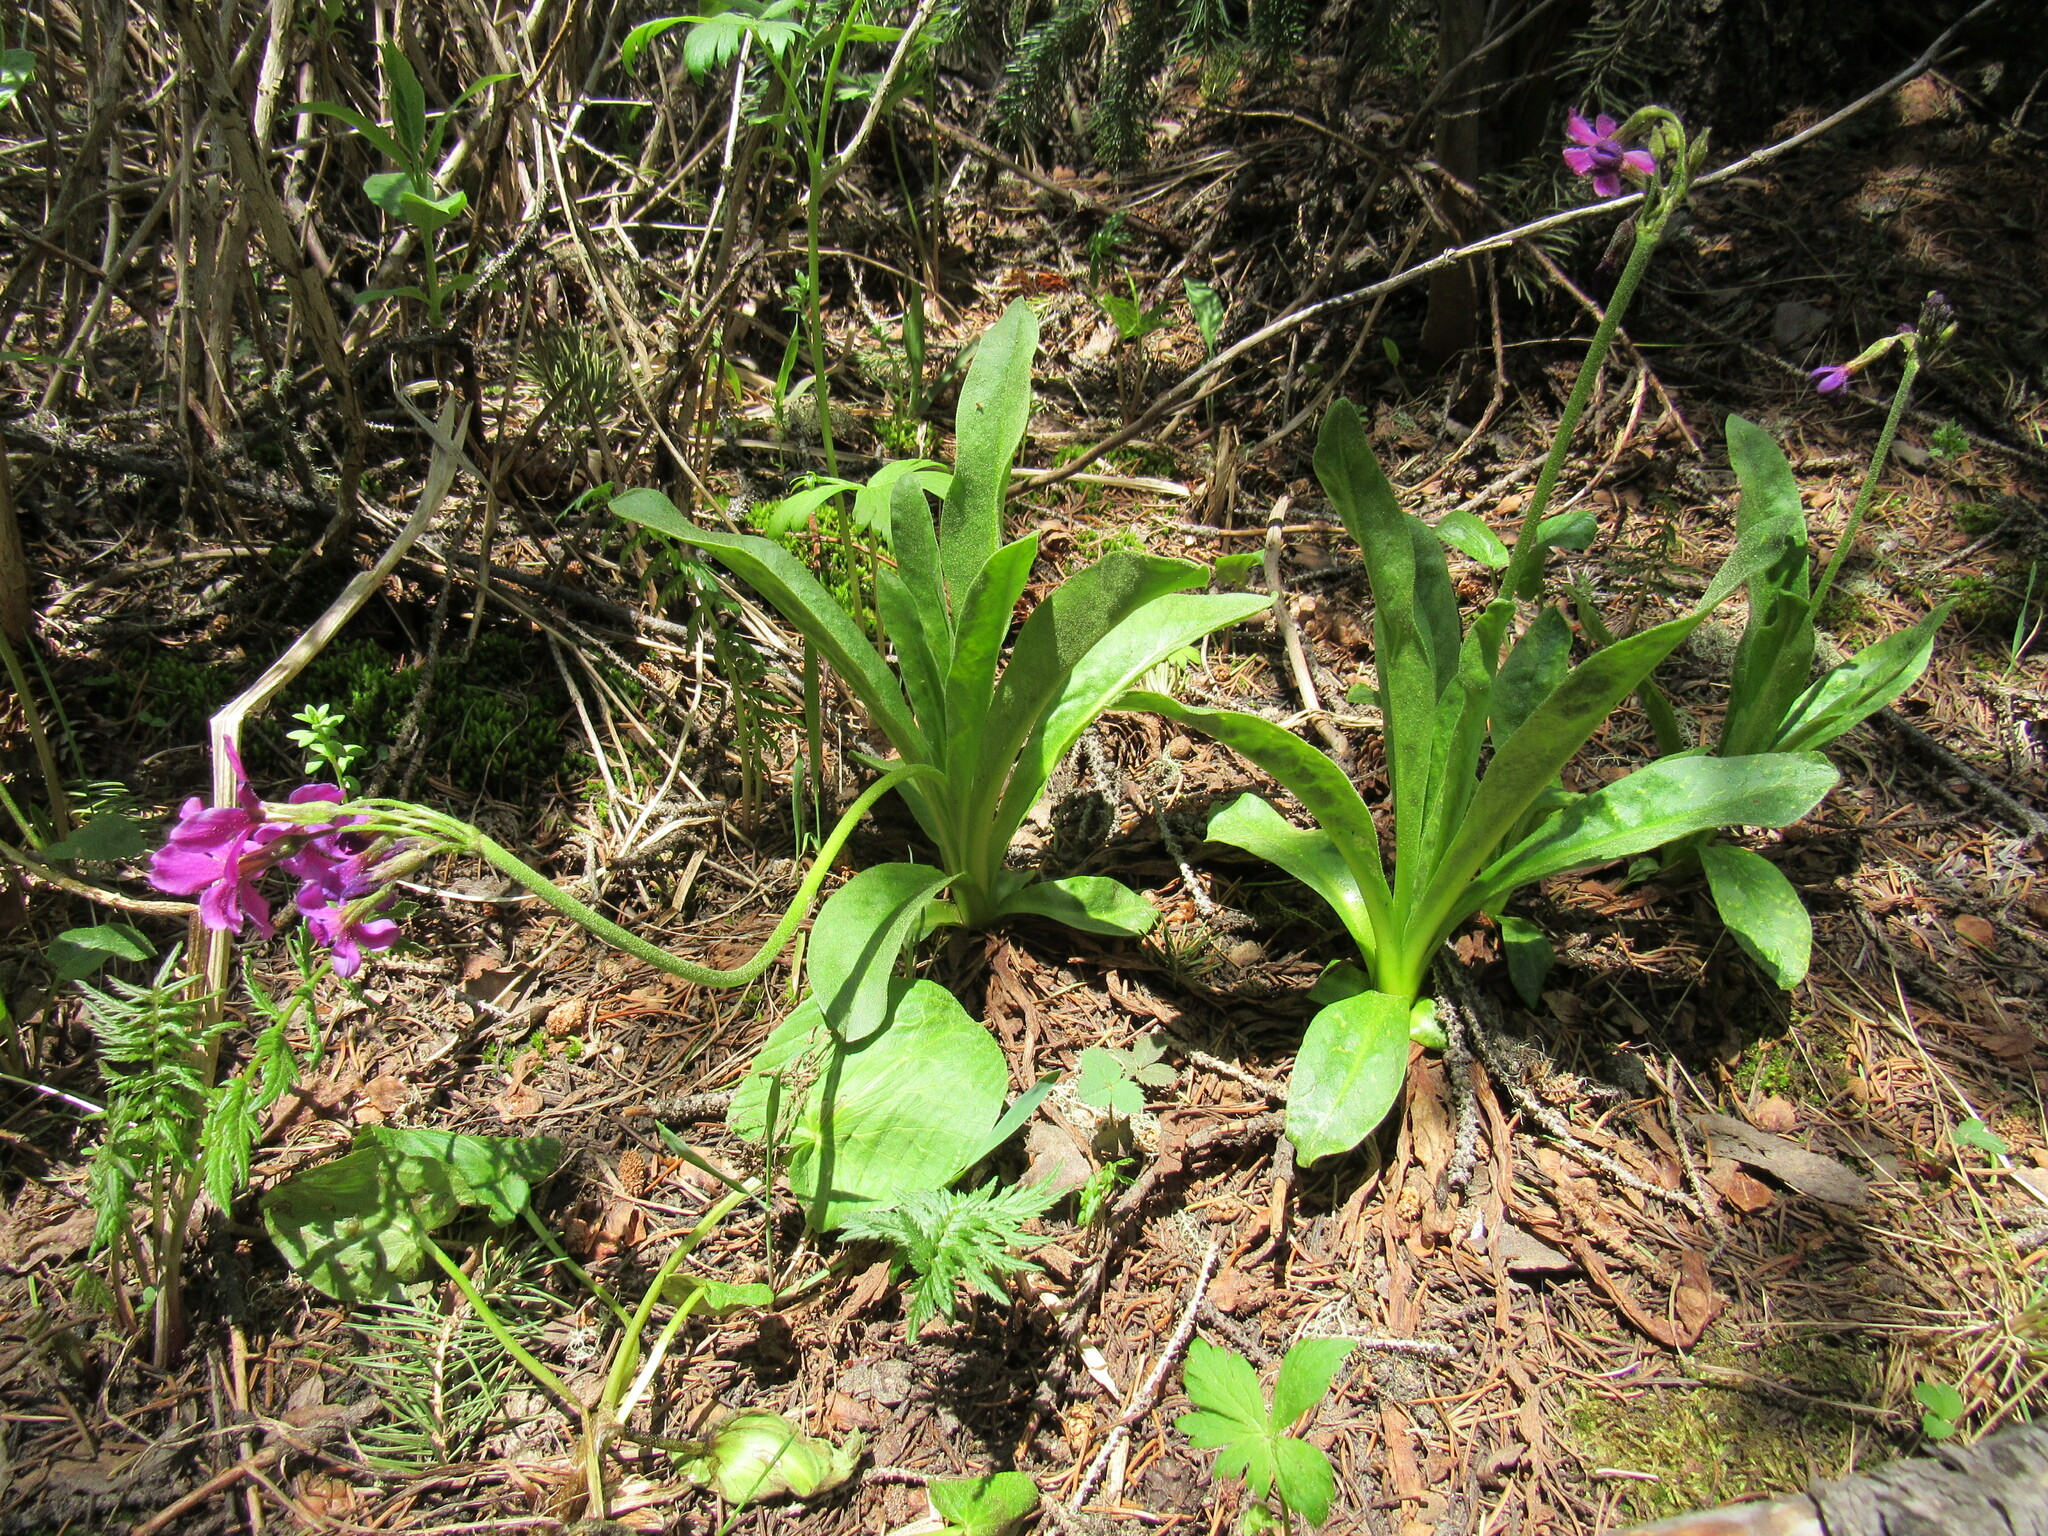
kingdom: Plantae
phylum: Tracheophyta
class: Magnoliopsida
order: Ericales
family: Primulaceae
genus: Primula
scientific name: Primula parryi
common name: Parry's primrose
